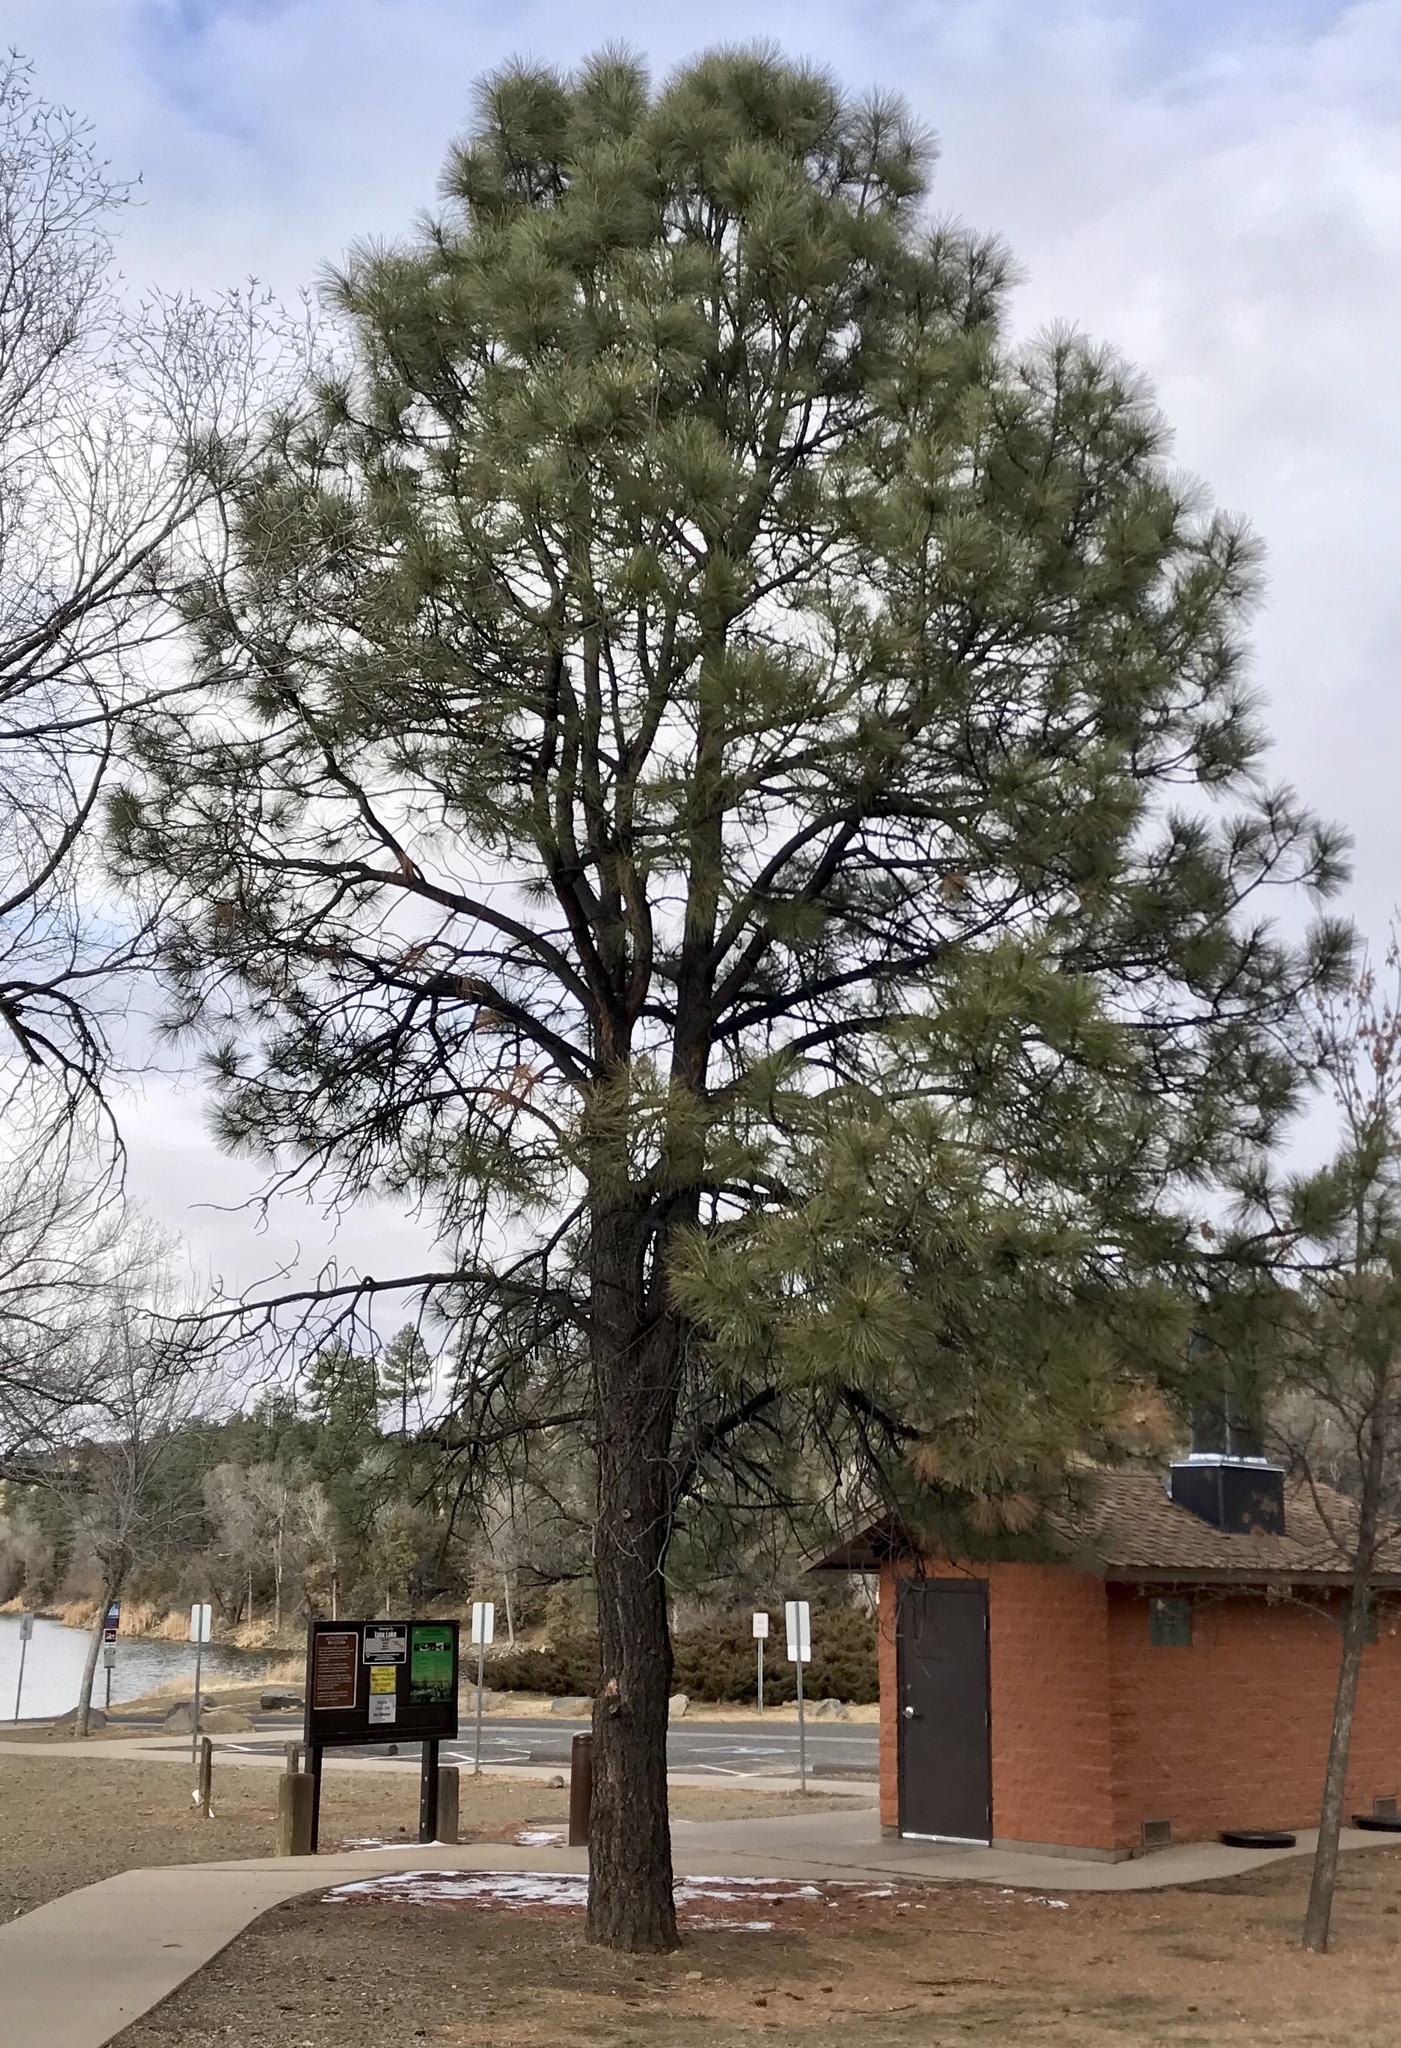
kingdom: Plantae
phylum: Tracheophyta
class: Pinopsida
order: Pinales
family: Pinaceae
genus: Pinus
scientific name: Pinus ponderosa
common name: Western yellow-pine
